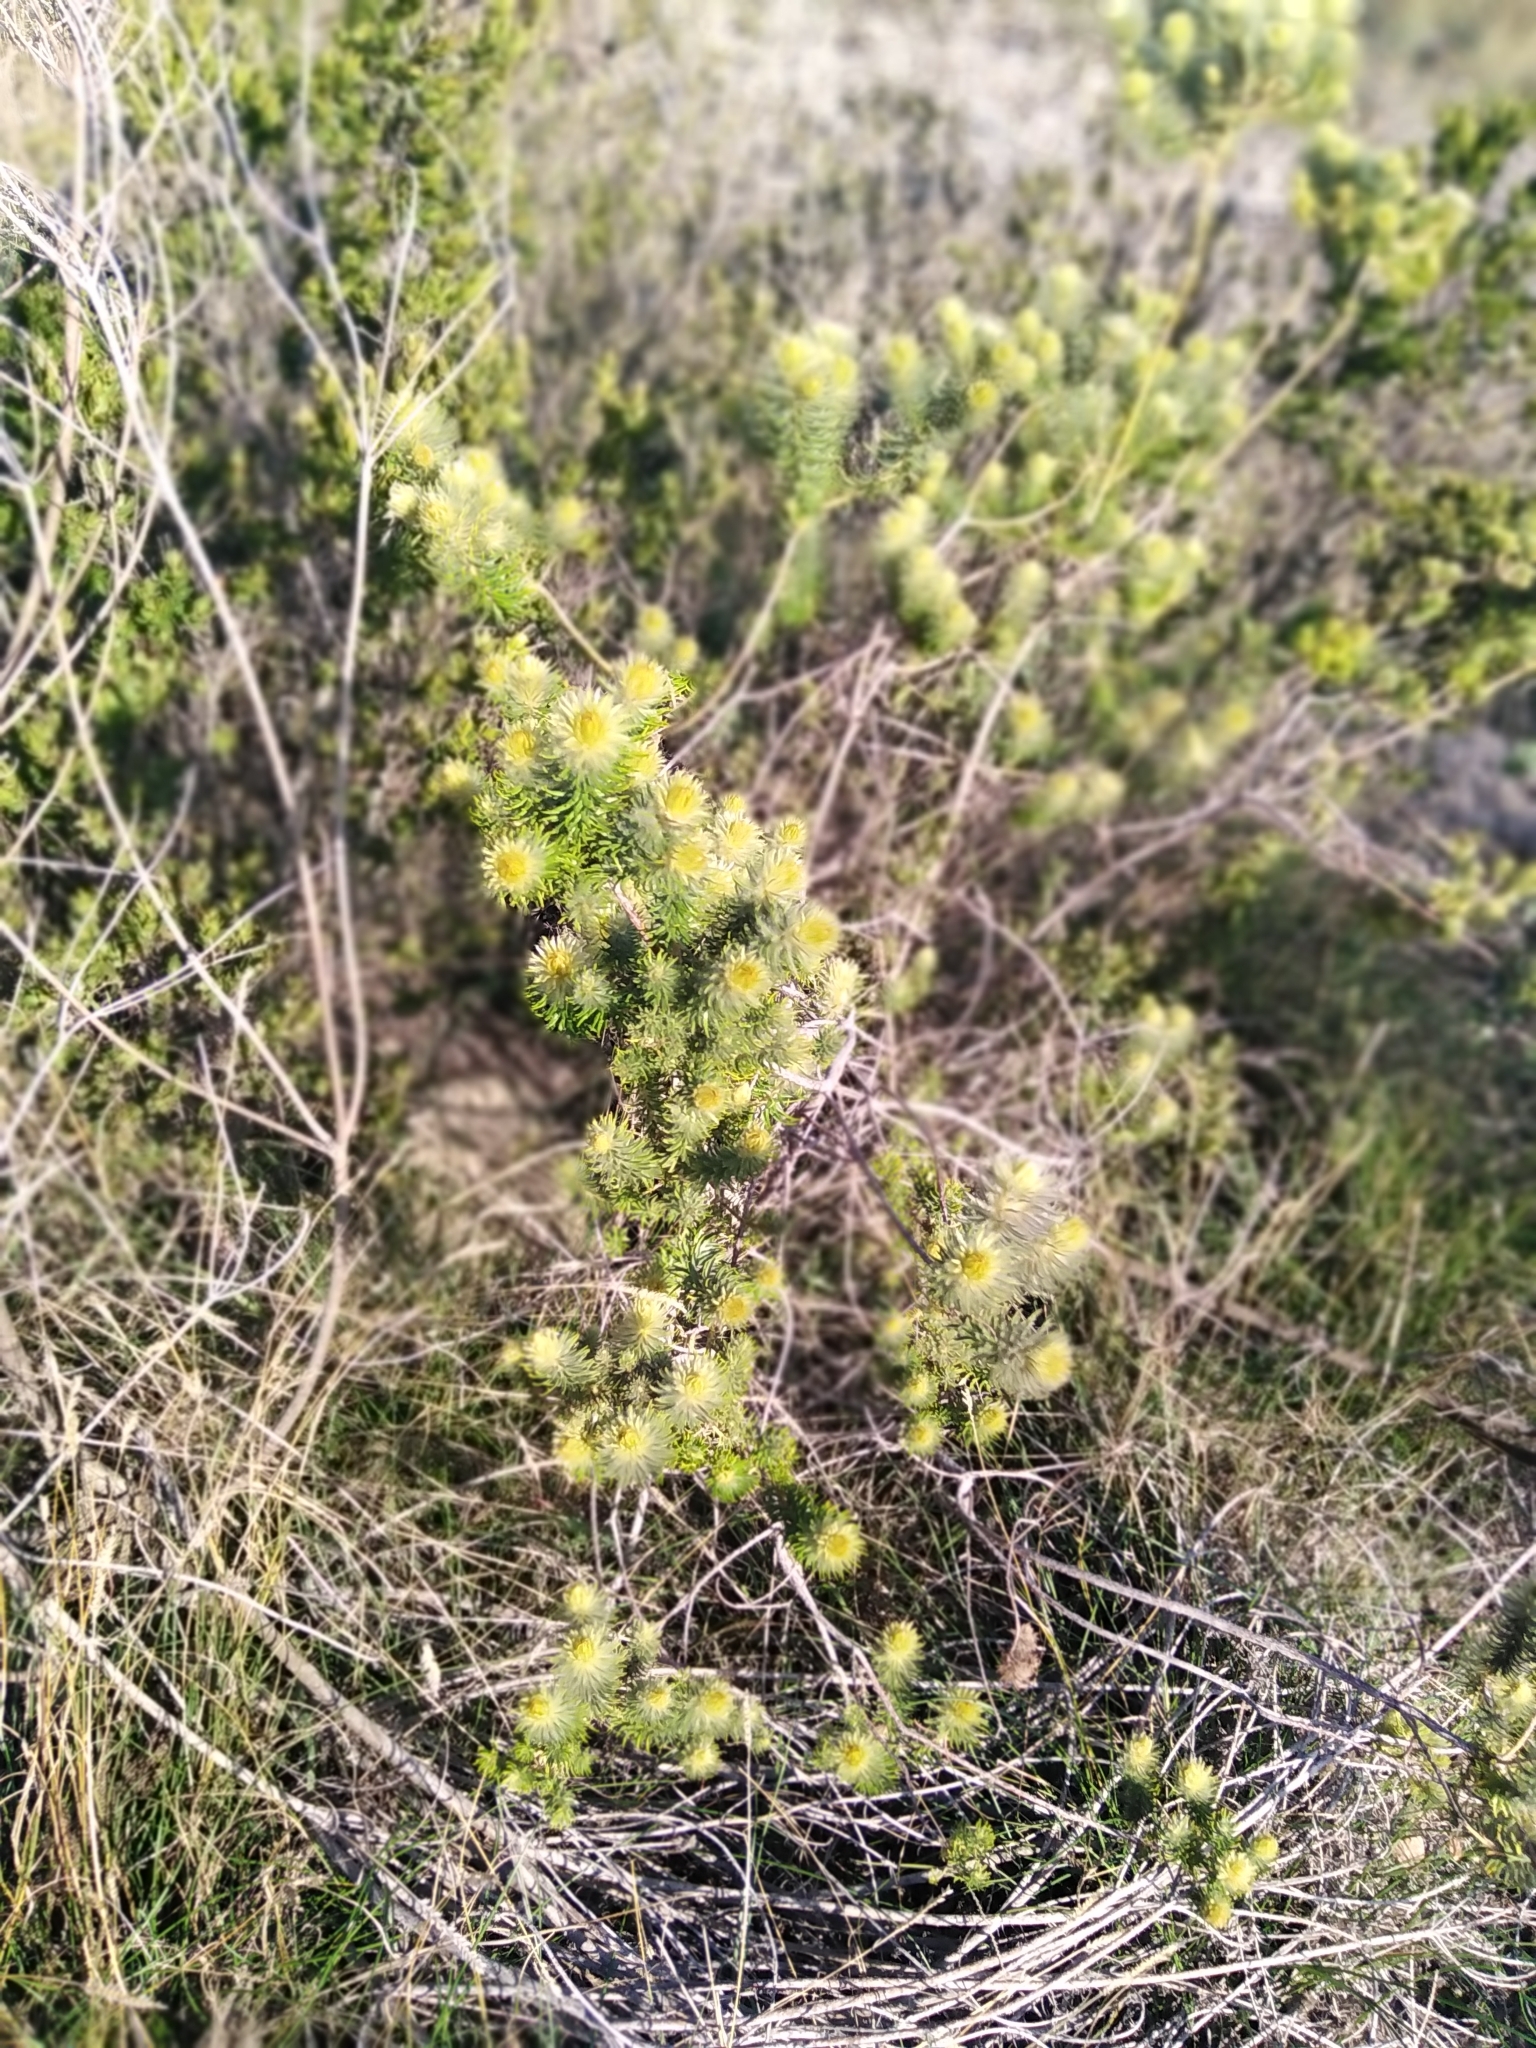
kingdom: Plantae
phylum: Tracheophyta
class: Magnoliopsida
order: Rosales
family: Rhamnaceae
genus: Phylica
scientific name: Phylica pubescens
